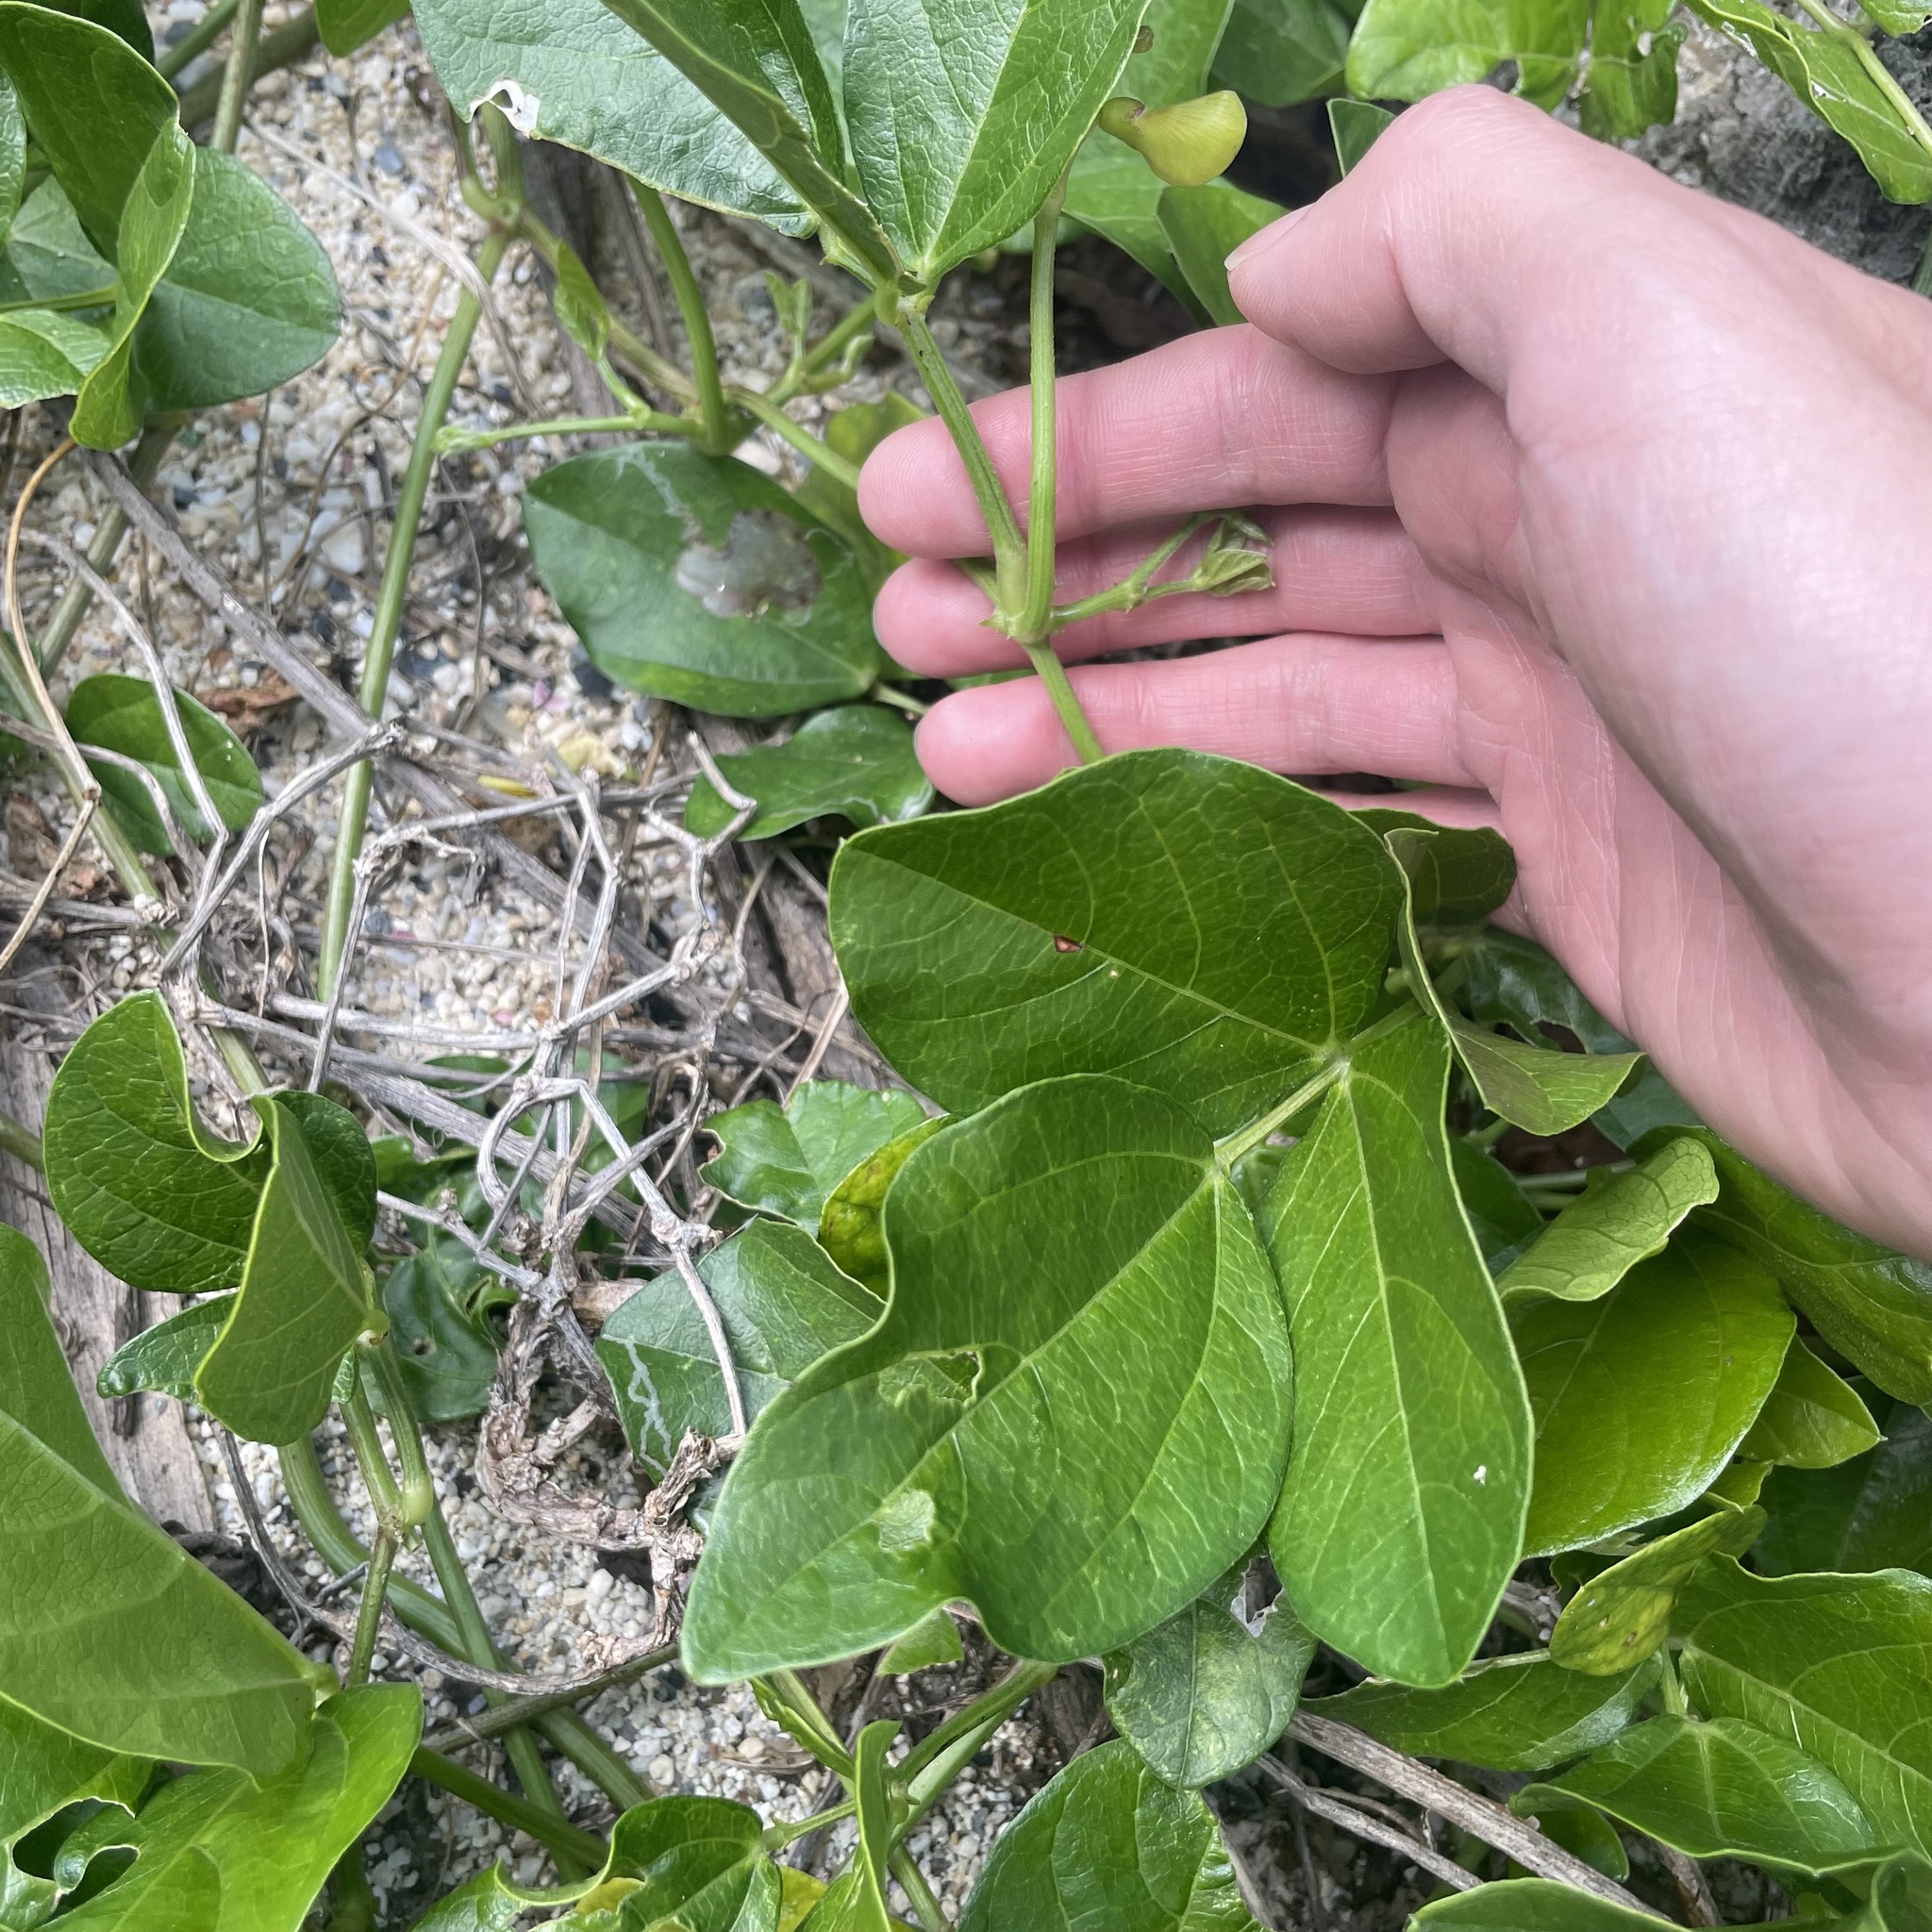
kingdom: Plantae
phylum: Tracheophyta
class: Magnoliopsida
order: Fabales
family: Fabaceae
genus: Vigna
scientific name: Vigna marina
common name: Dune-bean
